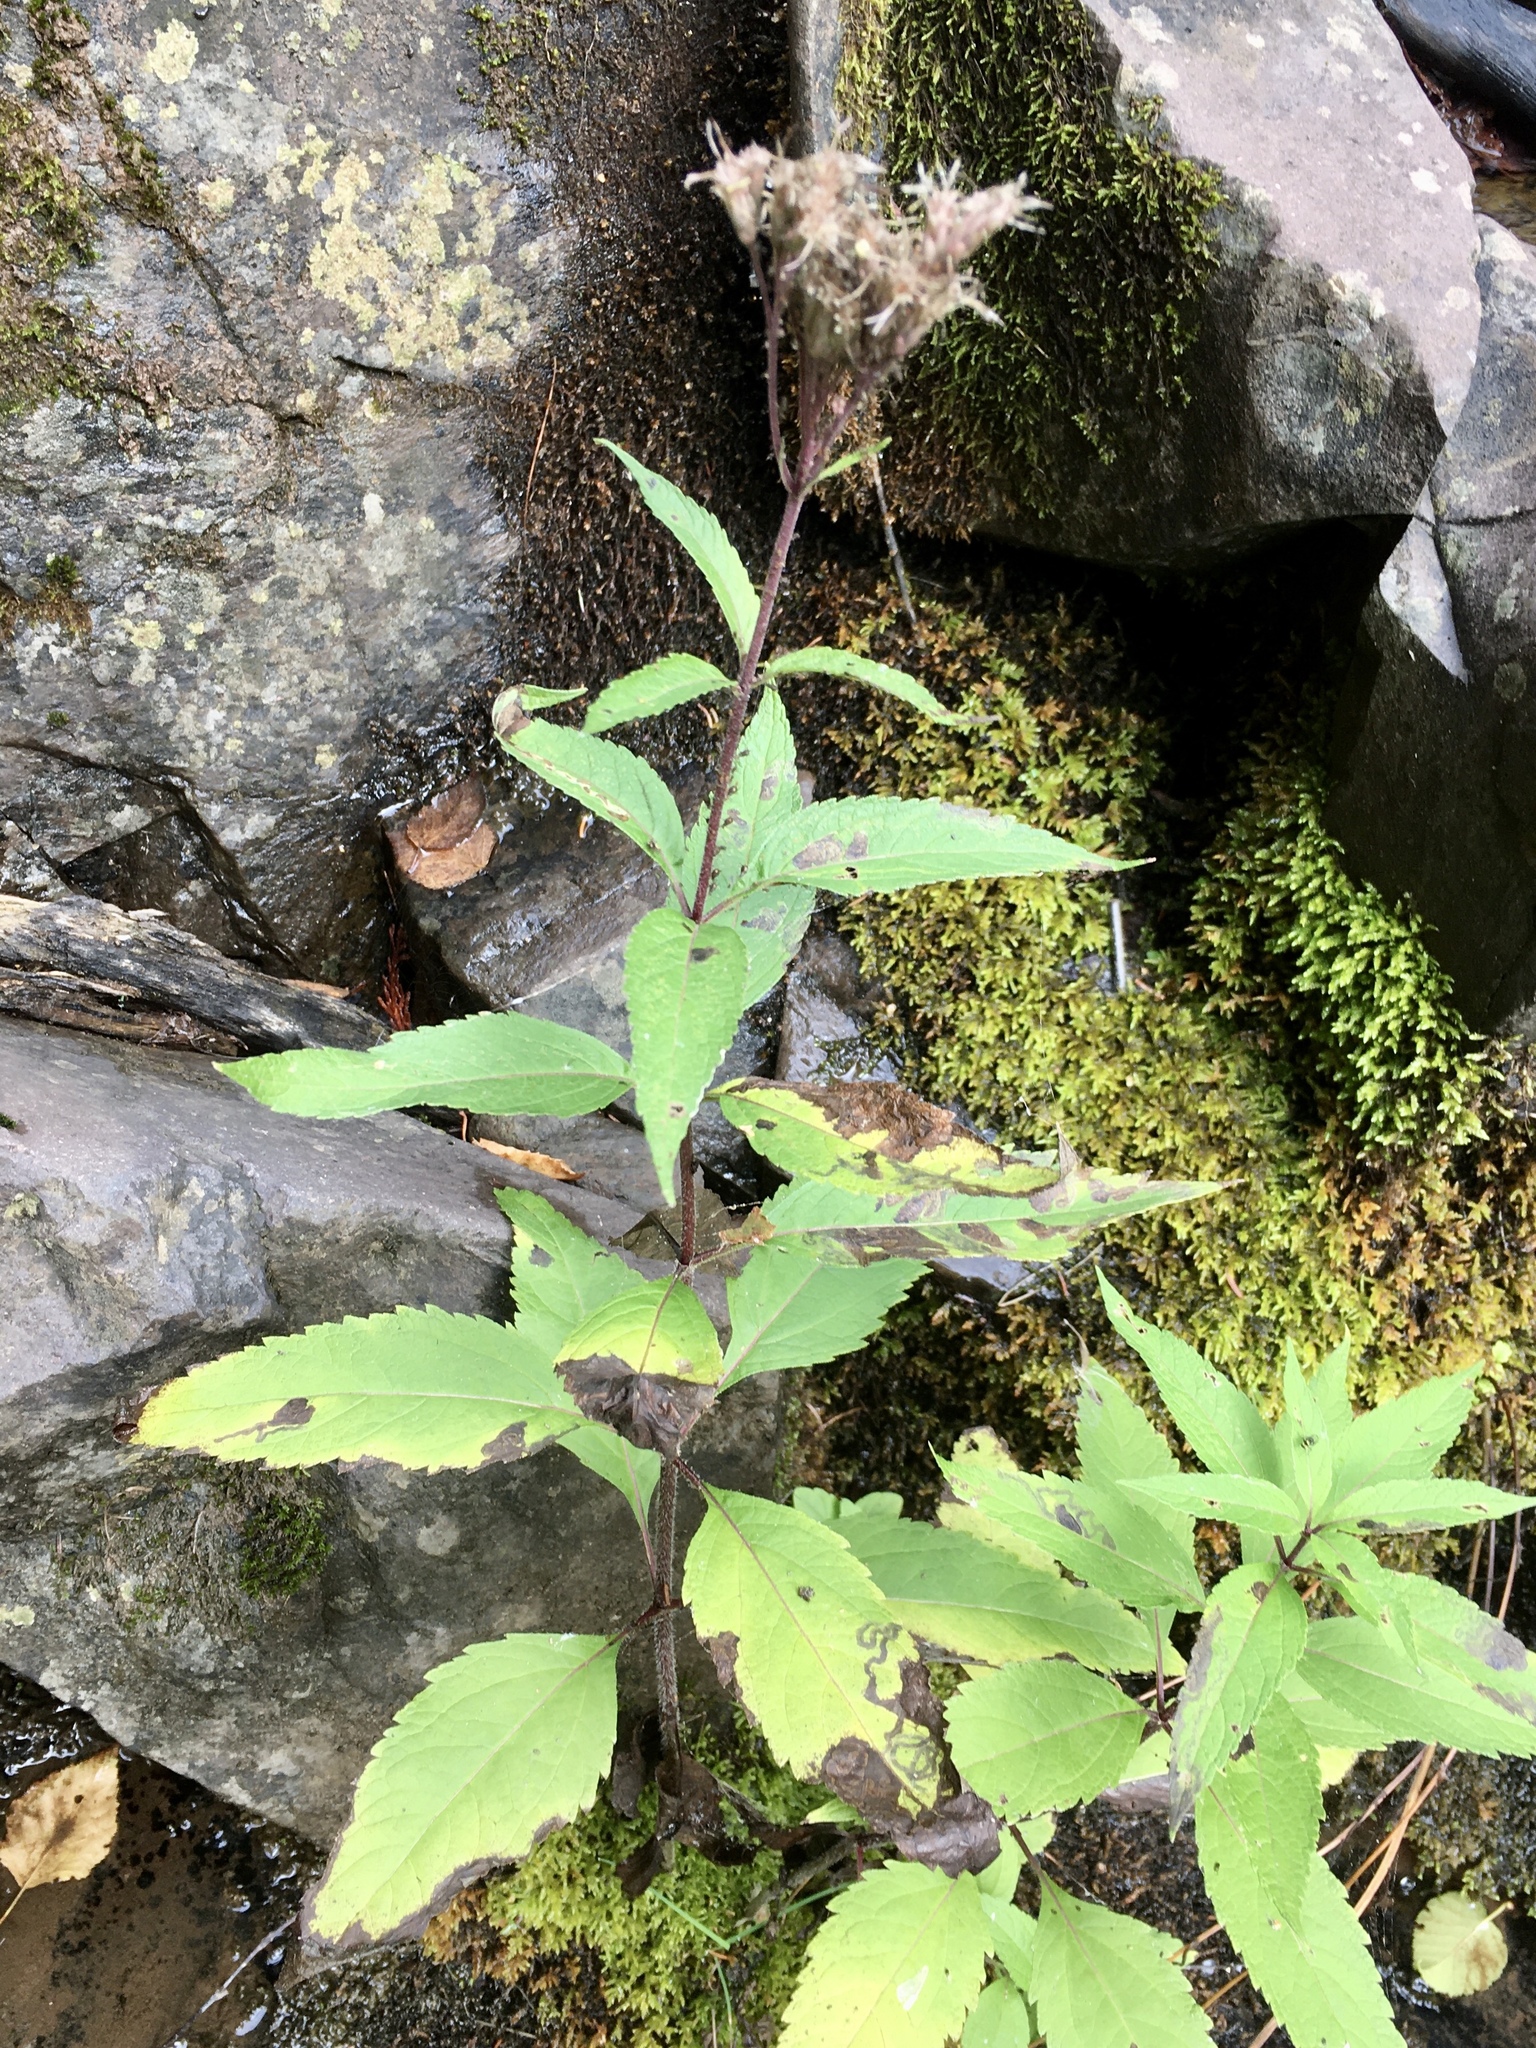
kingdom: Plantae
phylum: Tracheophyta
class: Magnoliopsida
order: Asterales
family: Asteraceae
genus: Eutrochium
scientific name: Eutrochium maculatum
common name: Spotted joe pye weed
